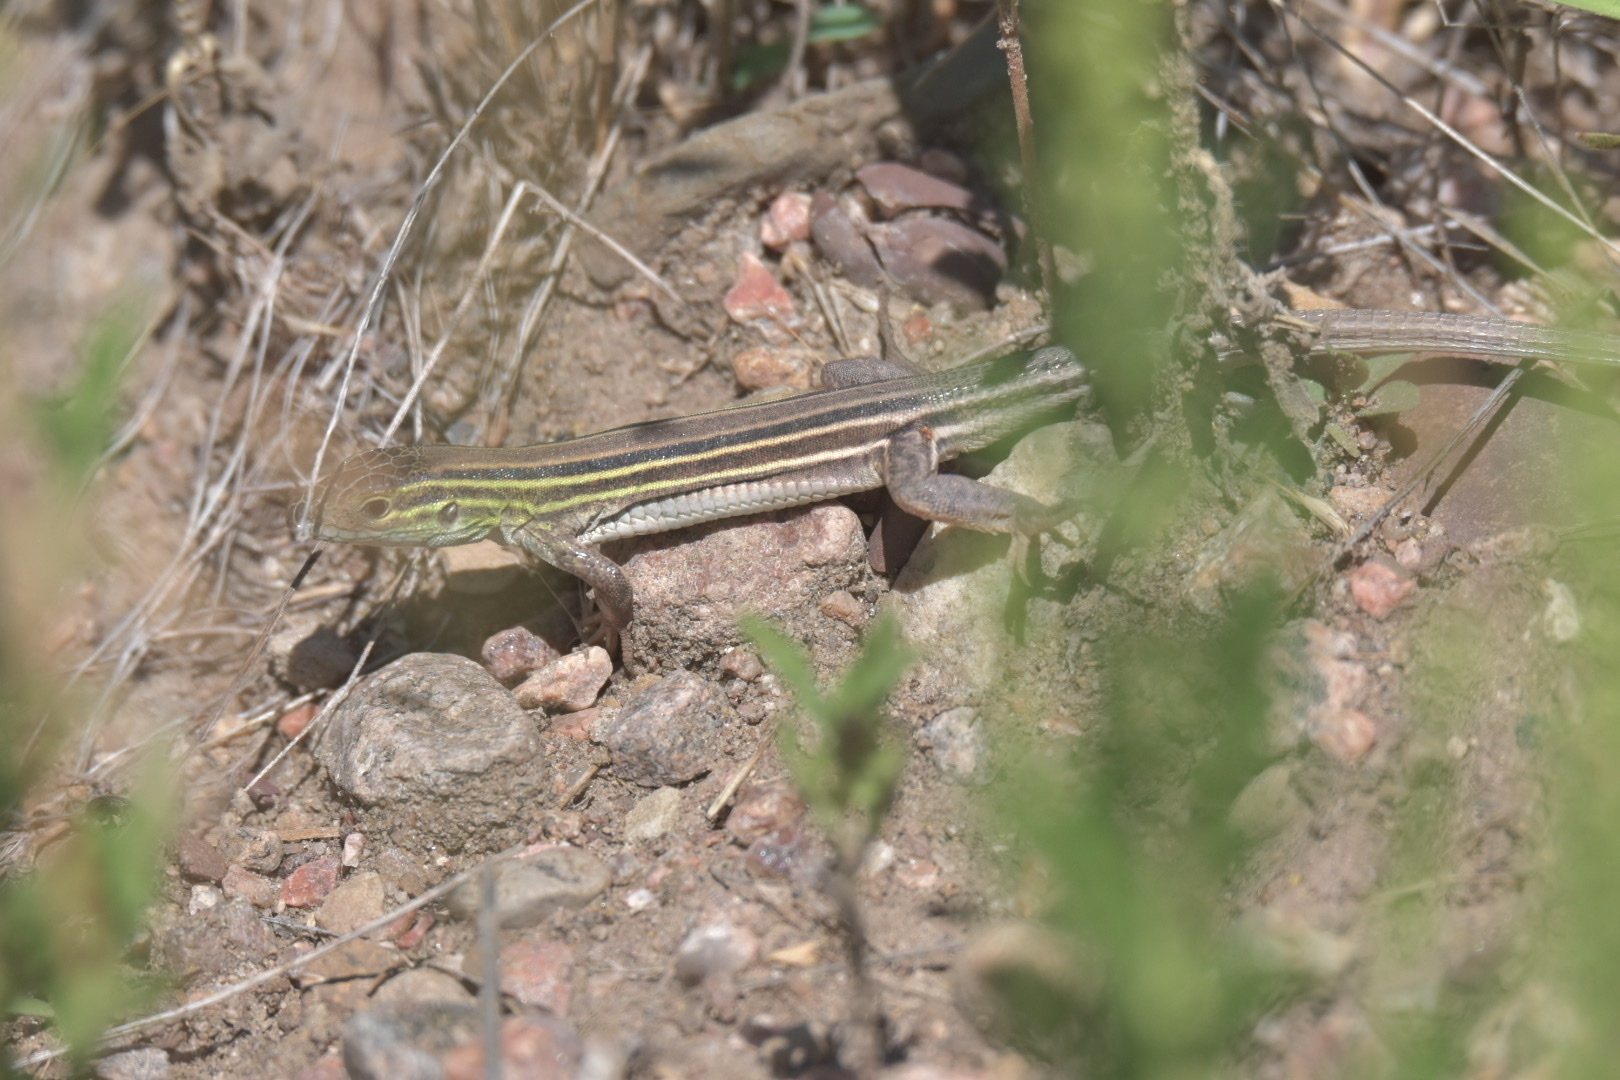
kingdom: Animalia
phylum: Chordata
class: Squamata
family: Teiidae
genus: Aspidoscelis
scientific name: Aspidoscelis sexlineatus
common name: Six-lined racerunner
